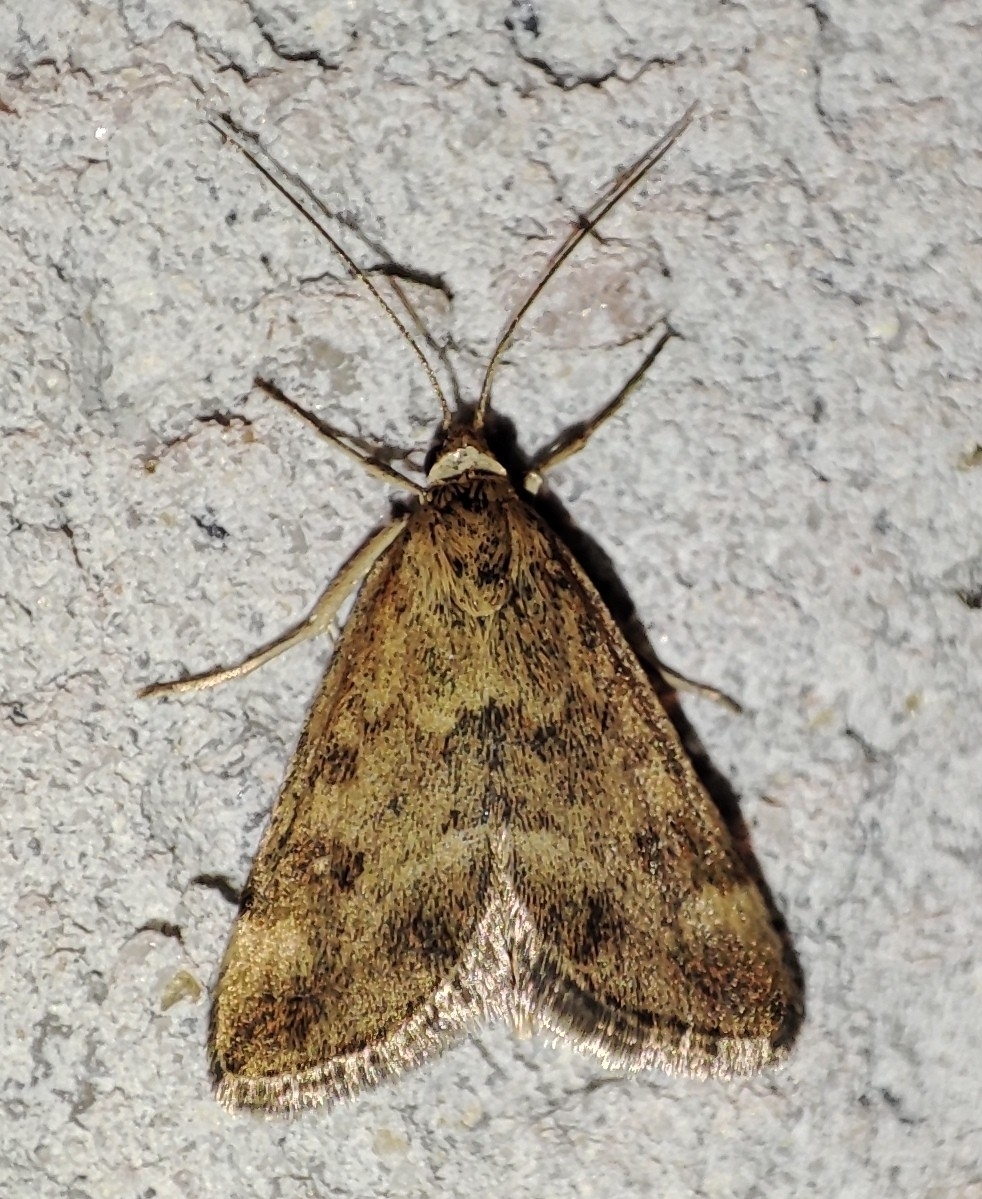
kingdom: Animalia
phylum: Arthropoda
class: Insecta
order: Lepidoptera
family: Crambidae
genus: Pyrausta
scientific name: Pyrausta despicata
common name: Straw-barred pearl
